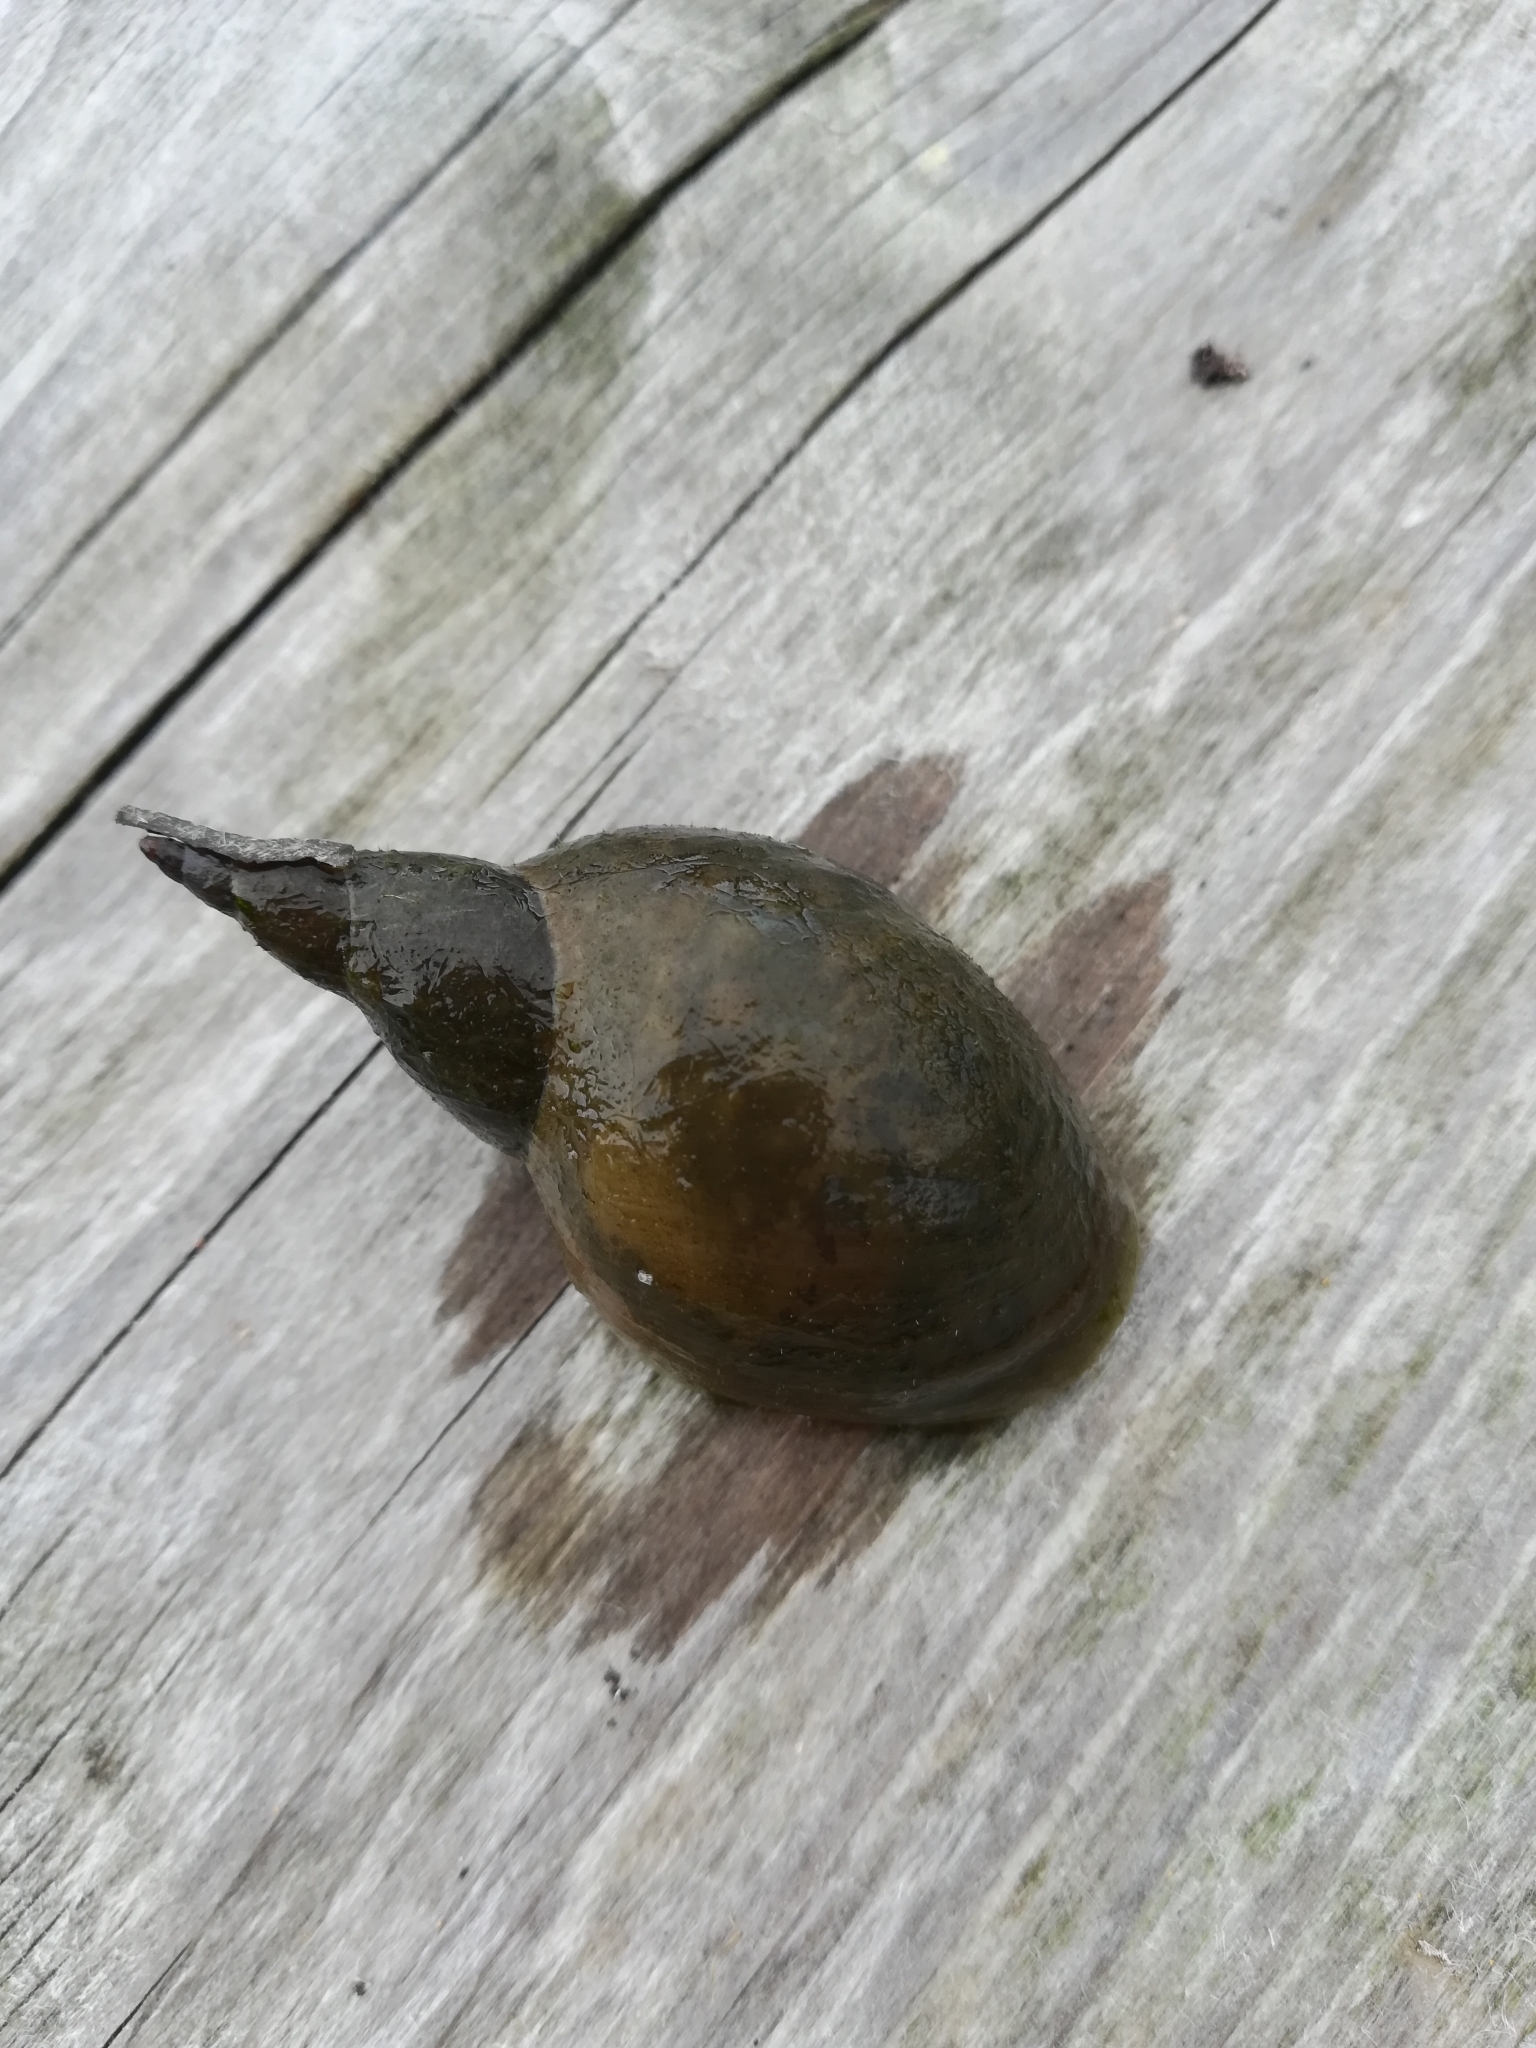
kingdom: Animalia
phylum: Mollusca
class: Gastropoda
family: Lymnaeidae
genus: Lymnaea
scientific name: Lymnaea stagnalis
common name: Great pond snail
